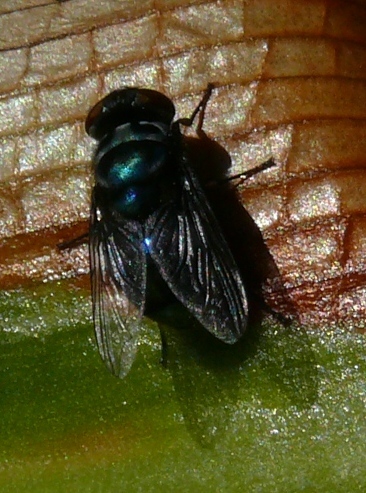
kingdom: Animalia
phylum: Arthropoda
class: Insecta
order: Diptera
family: Calliphoridae
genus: Chrysomya
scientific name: Chrysomya chloropyga
